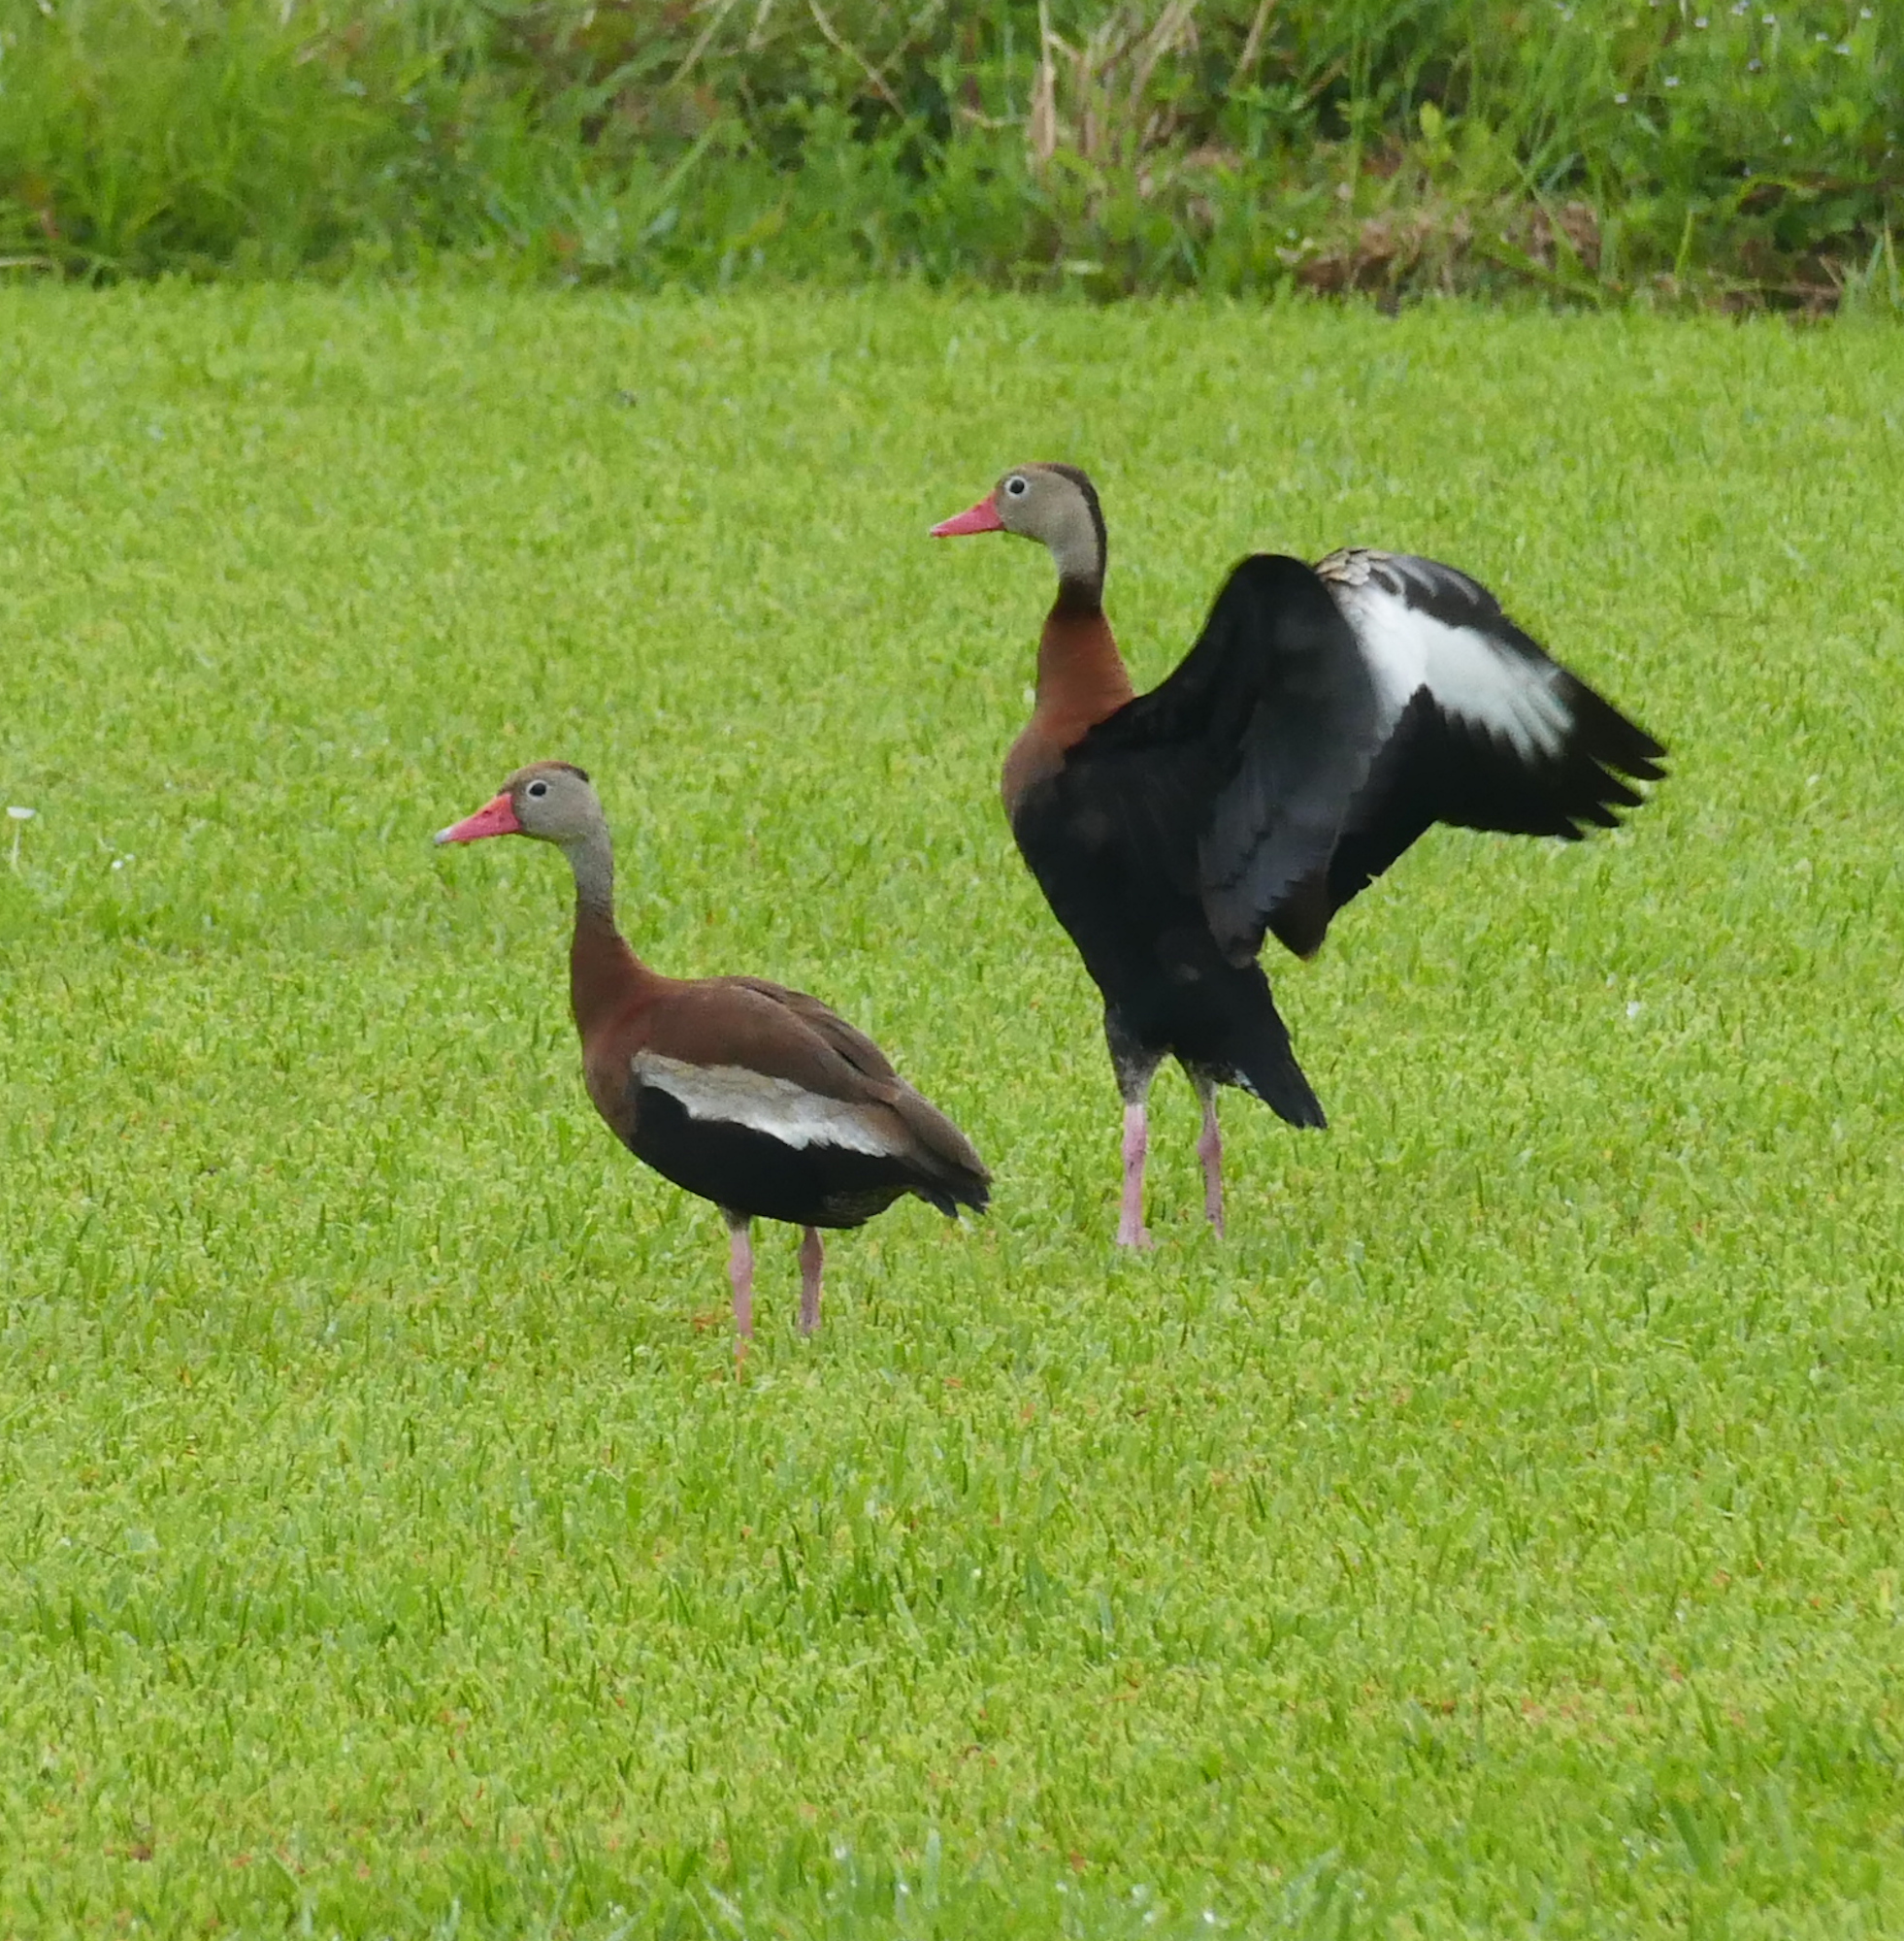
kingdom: Animalia
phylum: Chordata
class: Aves
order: Anseriformes
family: Anatidae
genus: Dendrocygna
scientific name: Dendrocygna autumnalis
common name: Black-bellied whistling duck
